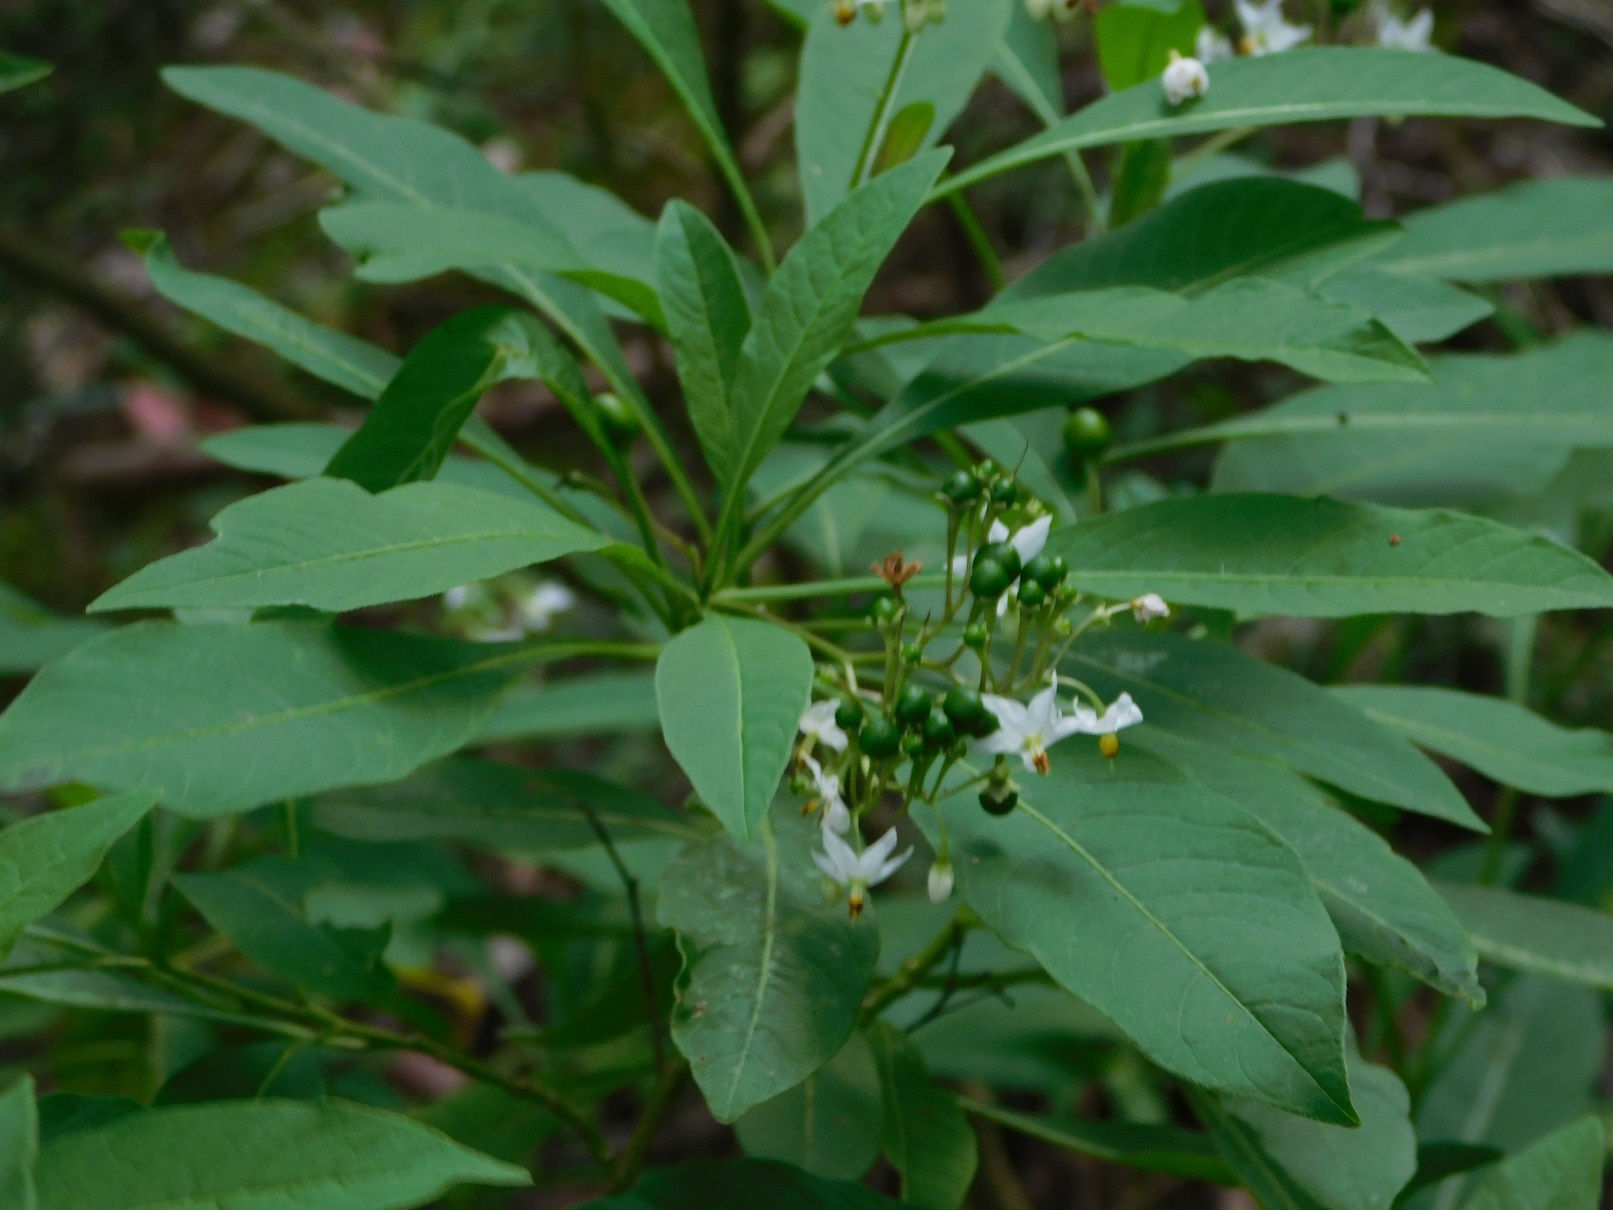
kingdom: Plantae
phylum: Tracheophyta
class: Magnoliopsida
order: Solanales
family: Solanaceae
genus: Solanum
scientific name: Solanum pubigerum
